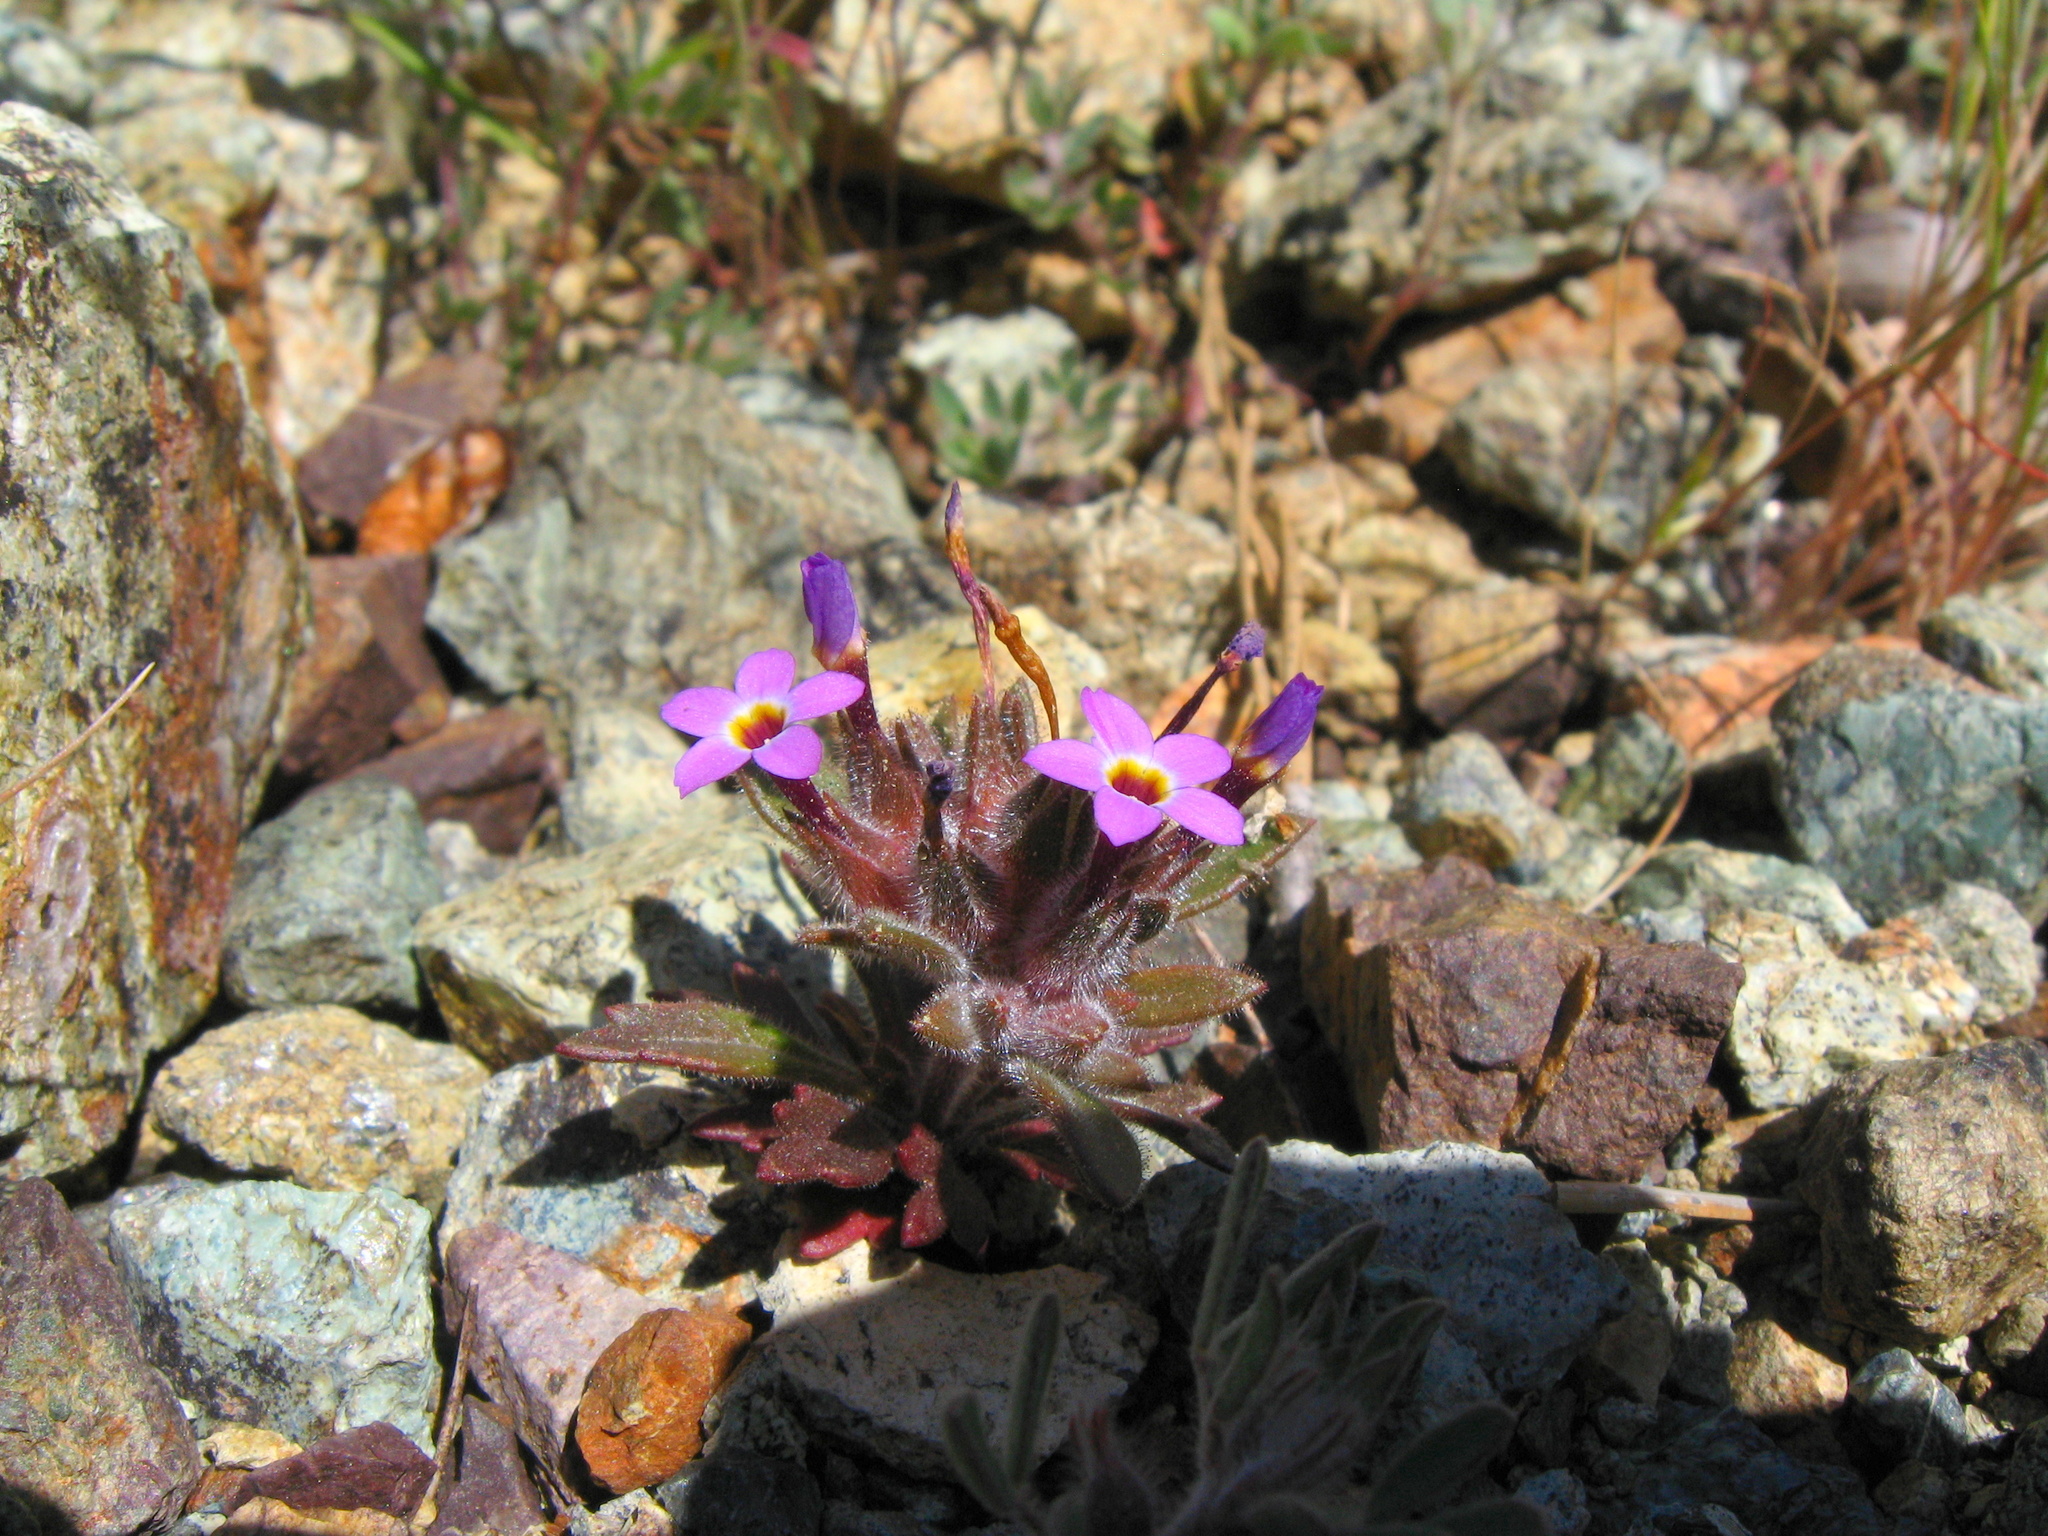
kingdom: Plantae
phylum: Tracheophyta
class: Magnoliopsida
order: Ericales
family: Polemoniaceae
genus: Collomia
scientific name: Collomia diversifolia
